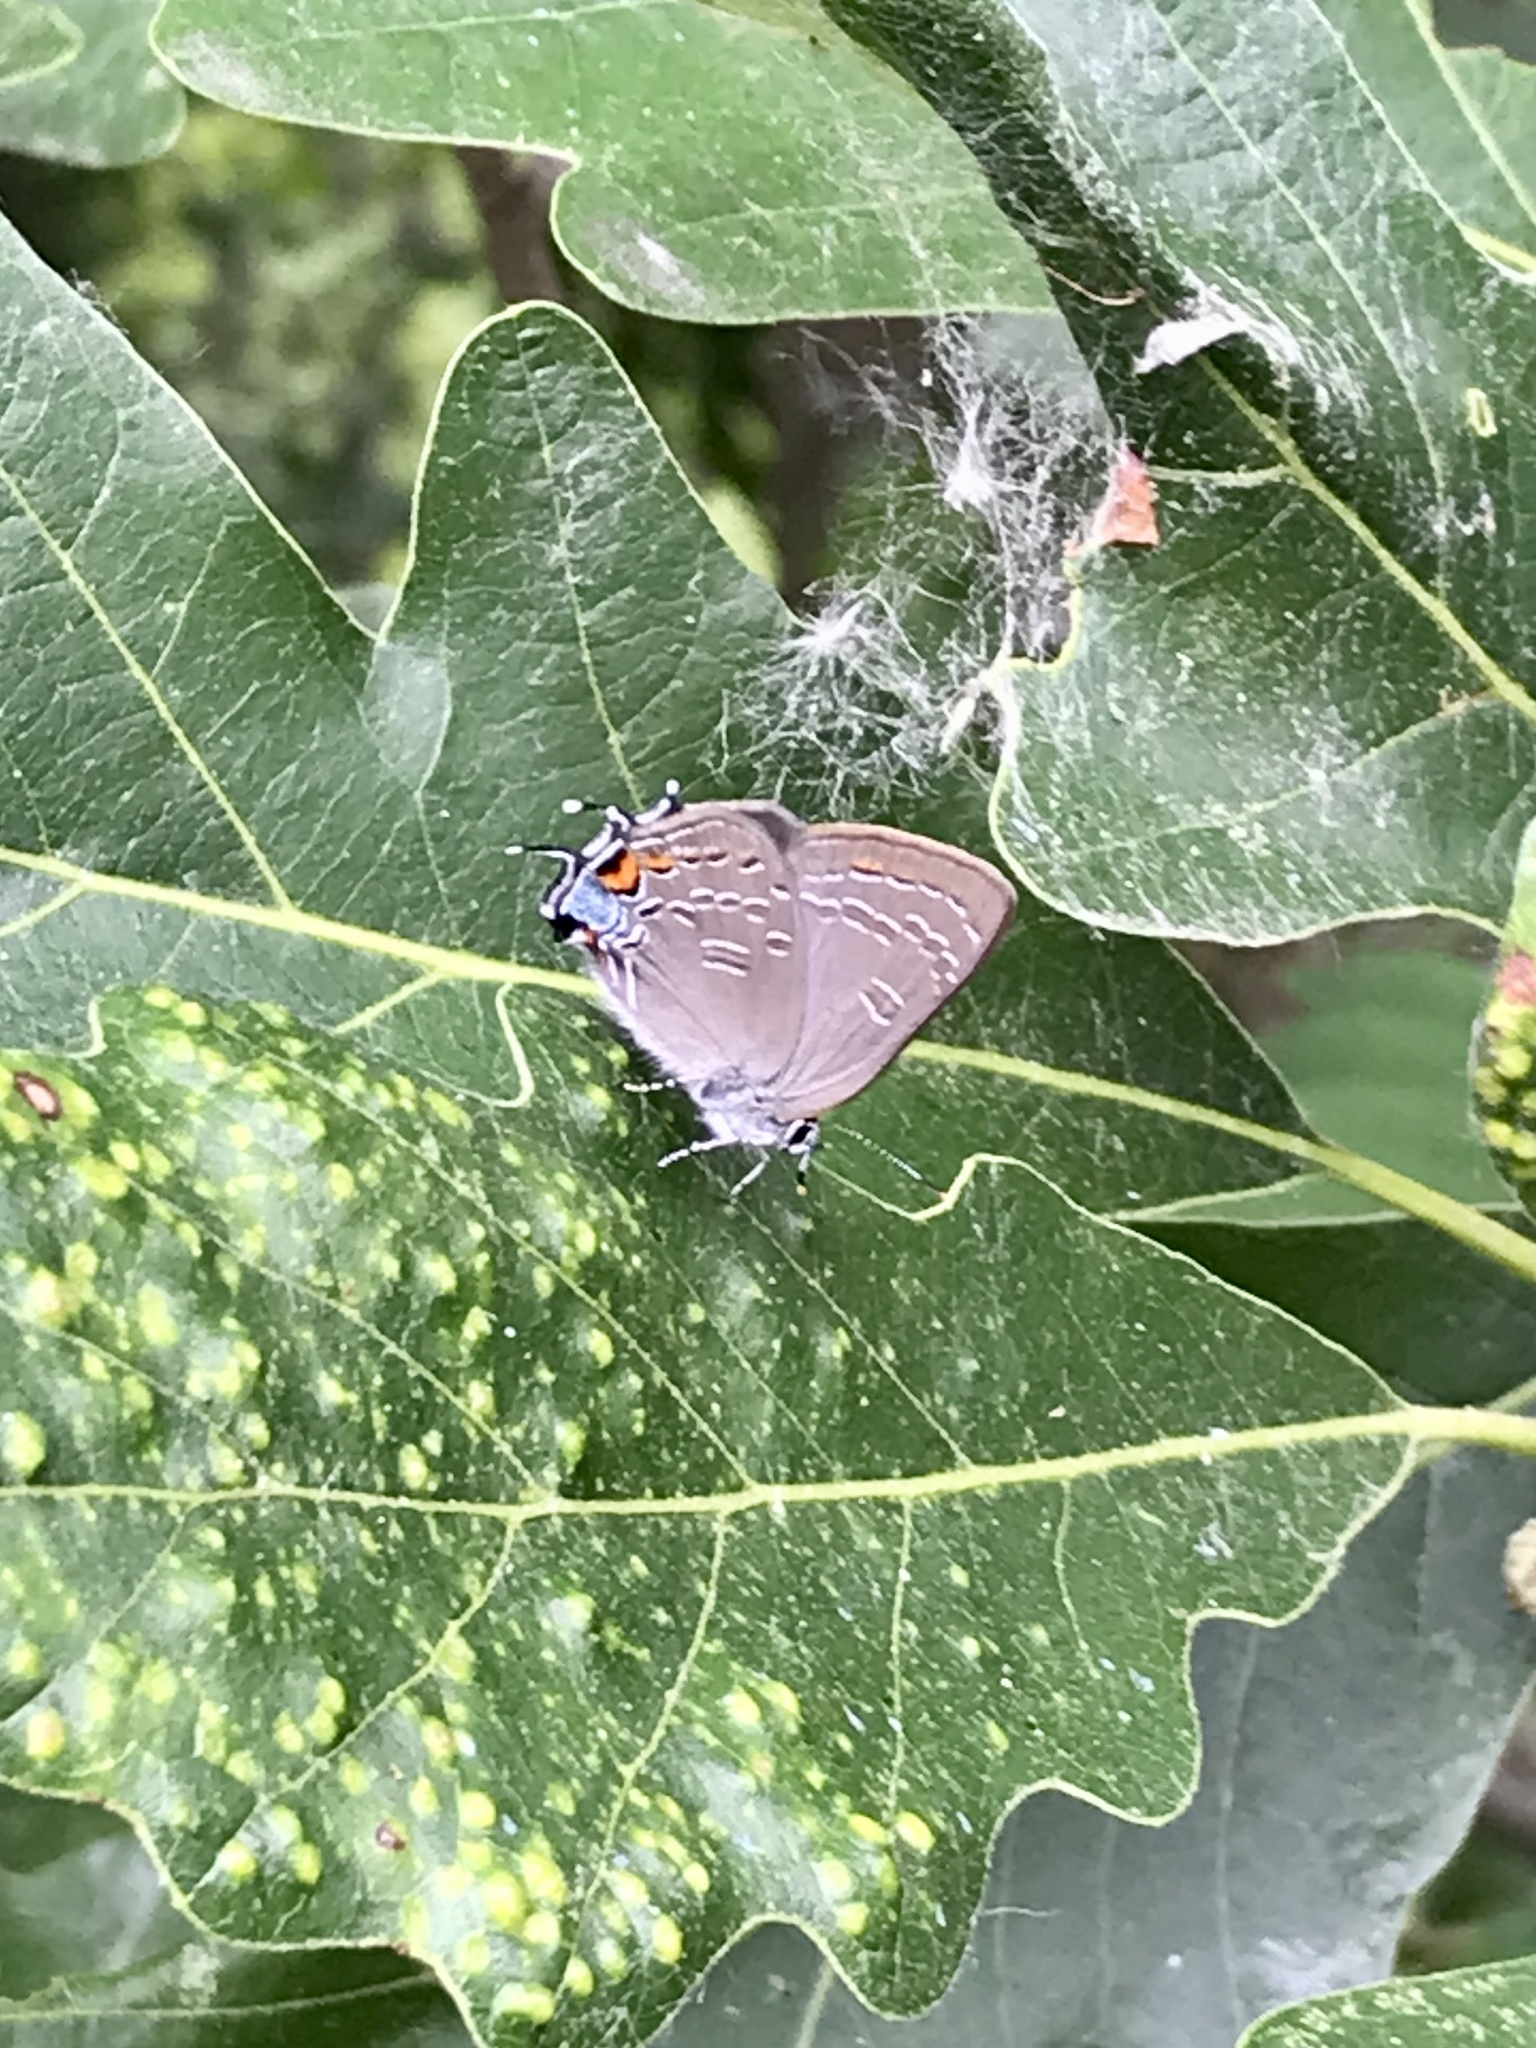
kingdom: Animalia
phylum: Arthropoda
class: Insecta
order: Lepidoptera
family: Lycaenidae
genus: Satyrium
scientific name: Satyrium calanus
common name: Banded hairstreak
